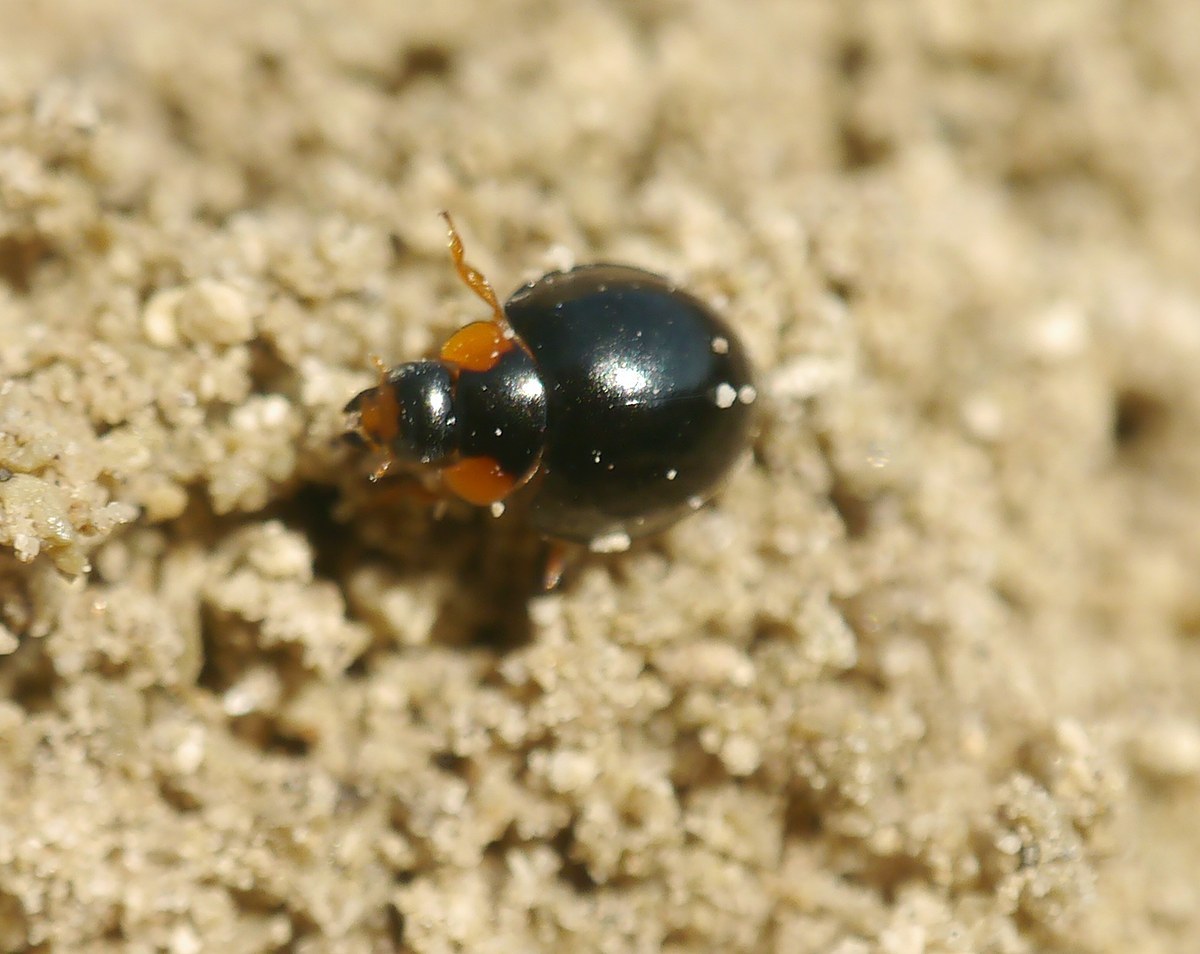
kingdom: Animalia
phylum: Arthropoda
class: Insecta
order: Coleoptera
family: Coccinellidae
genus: Parexochomus
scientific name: Parexochomus nigromaculatus
